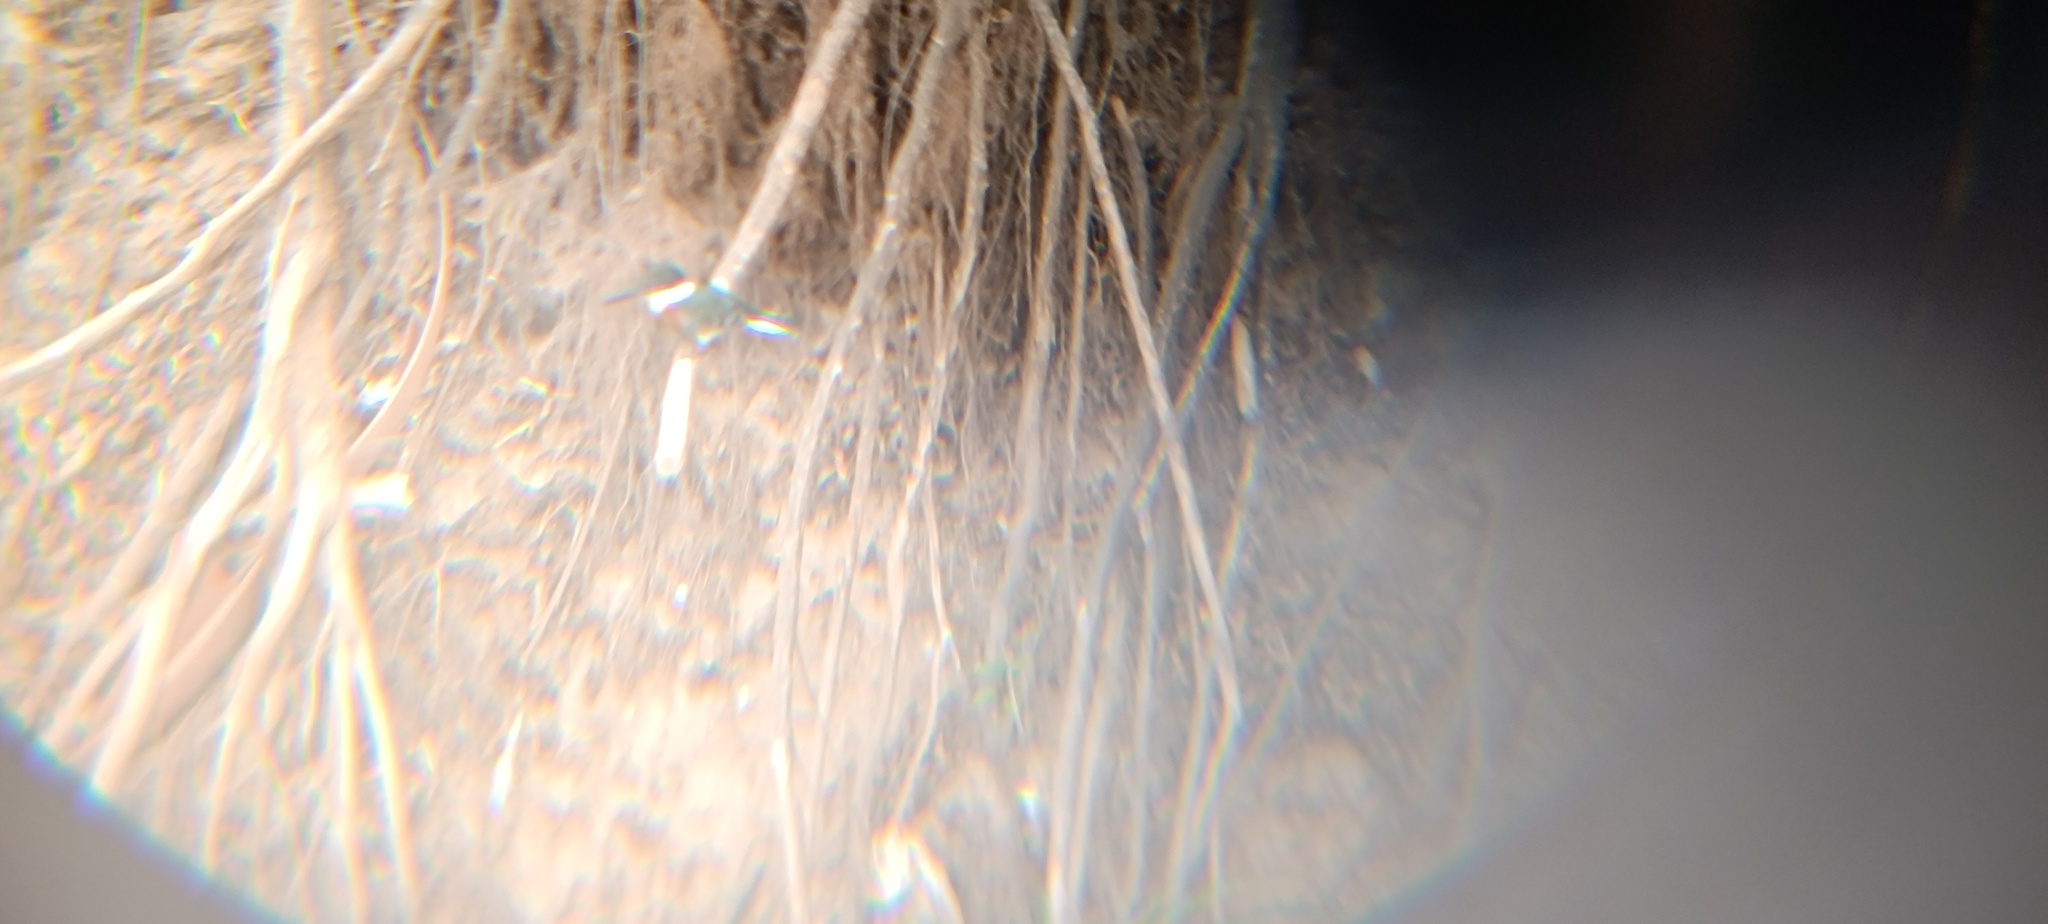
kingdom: Animalia
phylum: Chordata
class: Aves
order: Coraciiformes
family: Alcedinidae
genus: Chloroceryle
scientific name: Chloroceryle americana
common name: Green kingfisher
